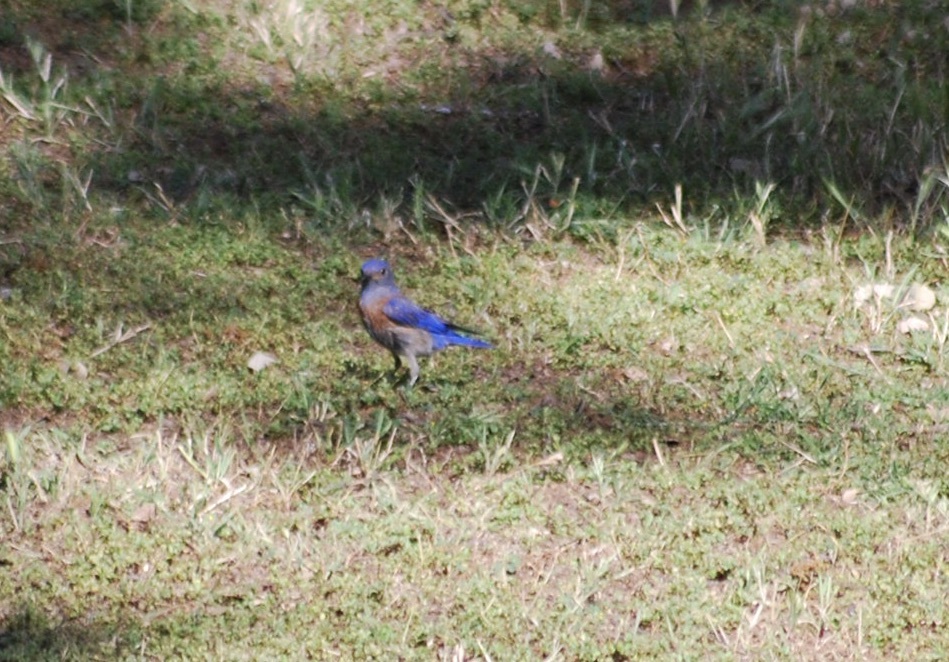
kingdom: Animalia
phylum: Chordata
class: Aves
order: Passeriformes
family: Turdidae
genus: Sialia
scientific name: Sialia mexicana
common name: Western bluebird
